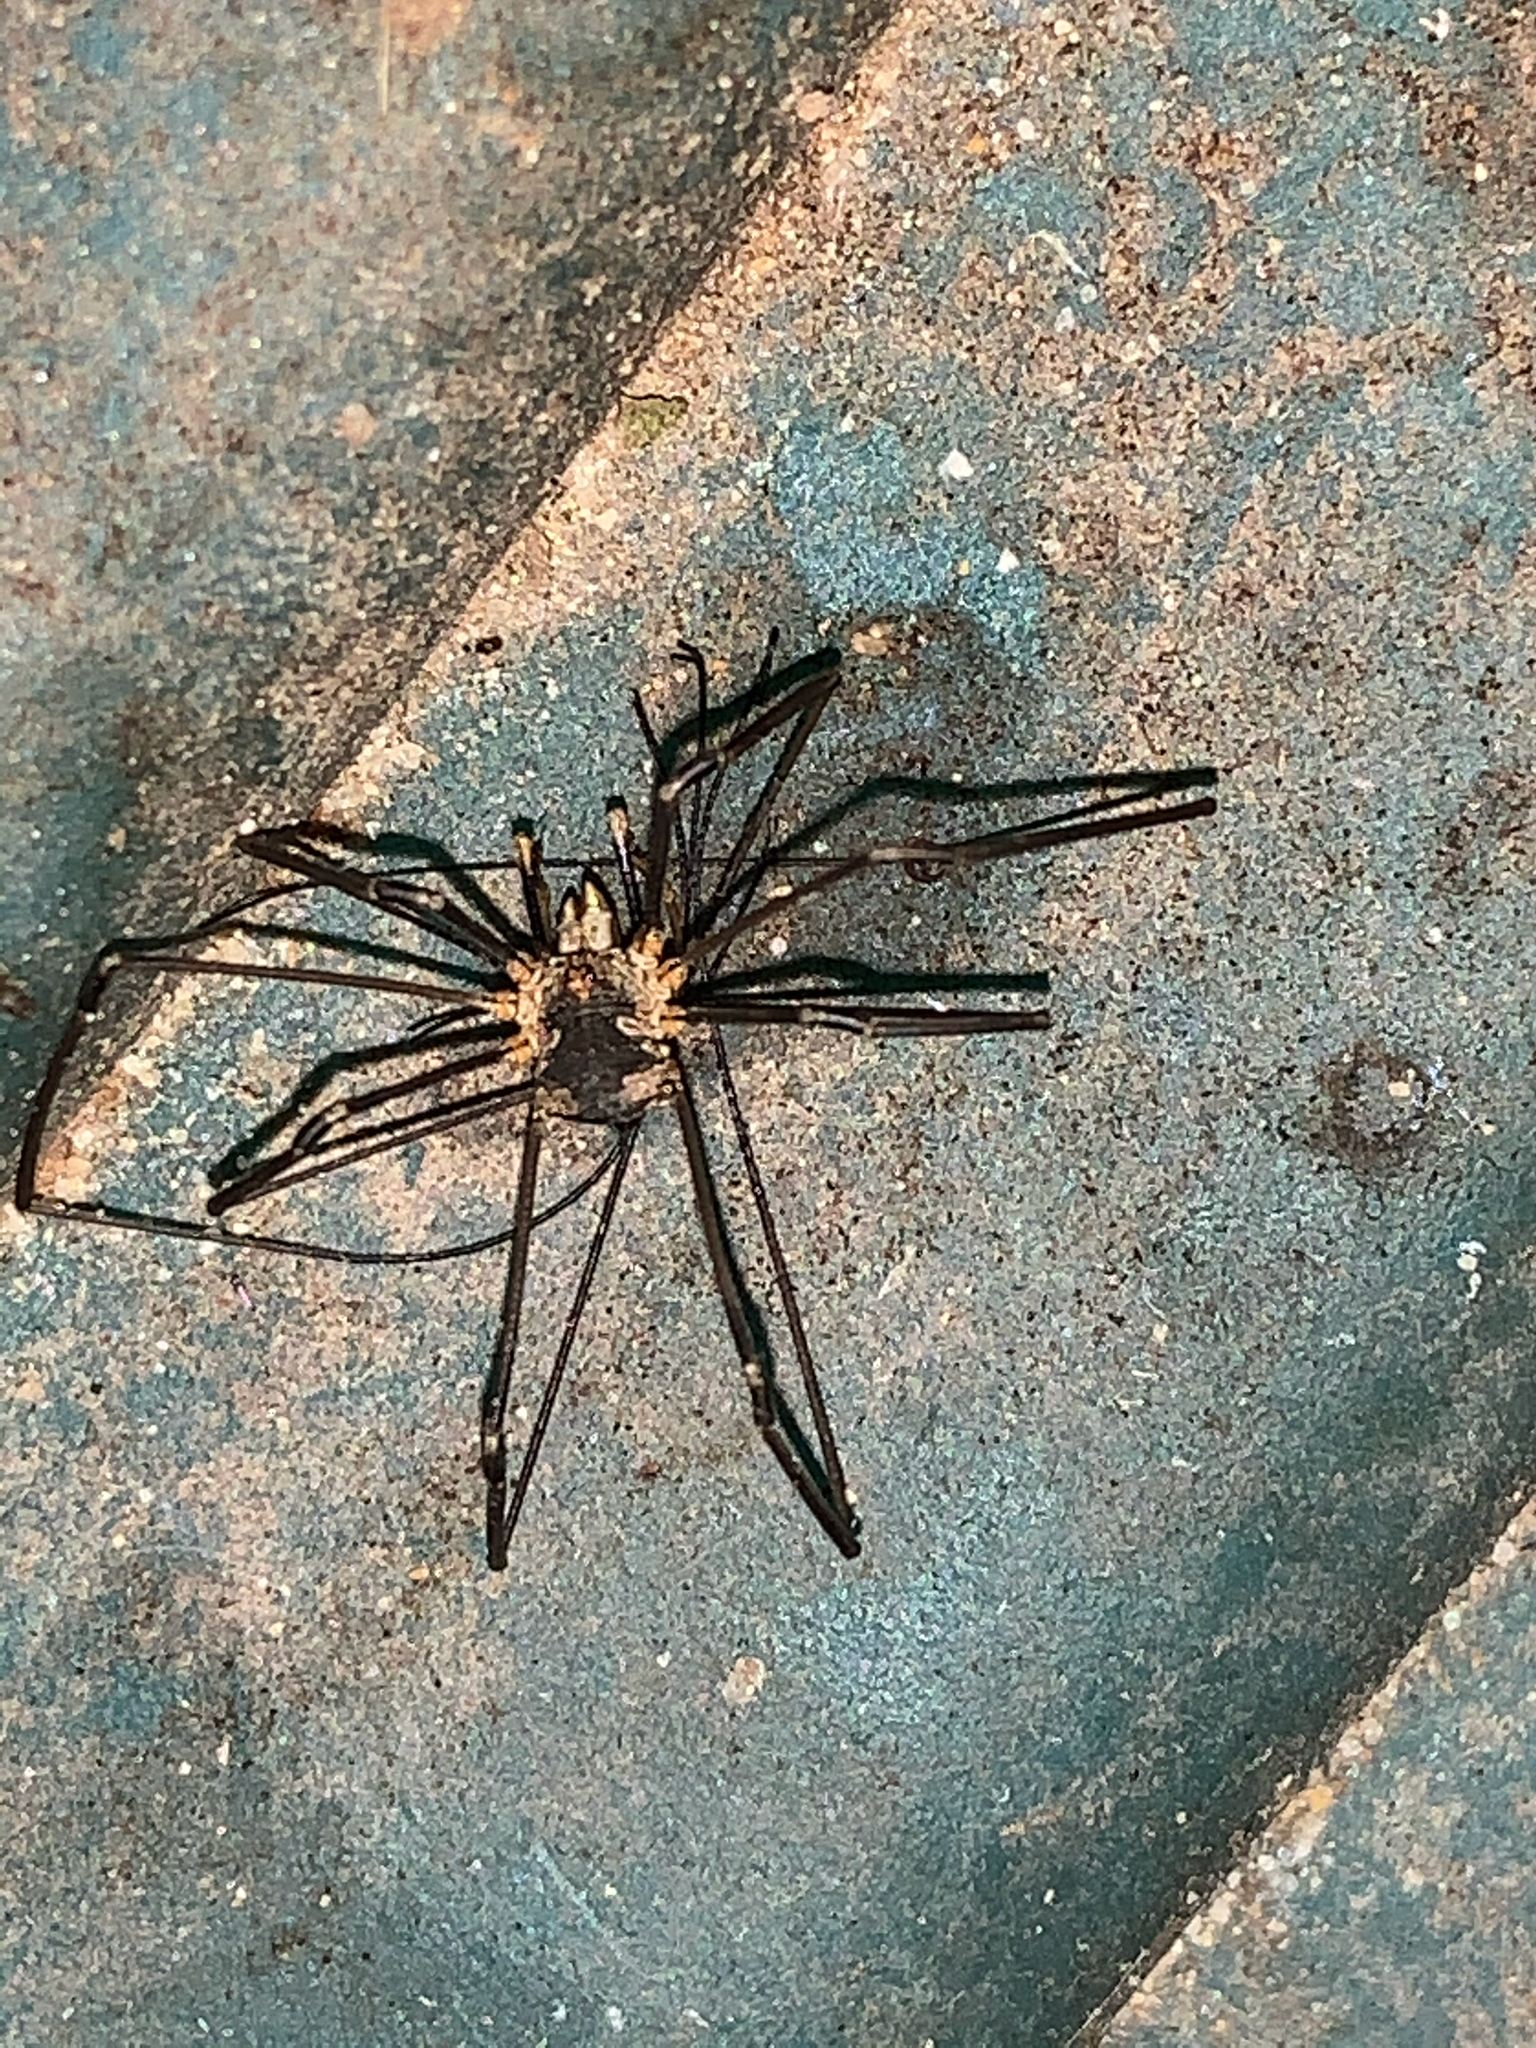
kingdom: Animalia
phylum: Arthropoda
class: Arachnida
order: Opiliones
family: Phalangiidae
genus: Phalangium
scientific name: Phalangium opilio
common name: Daddy longleg
